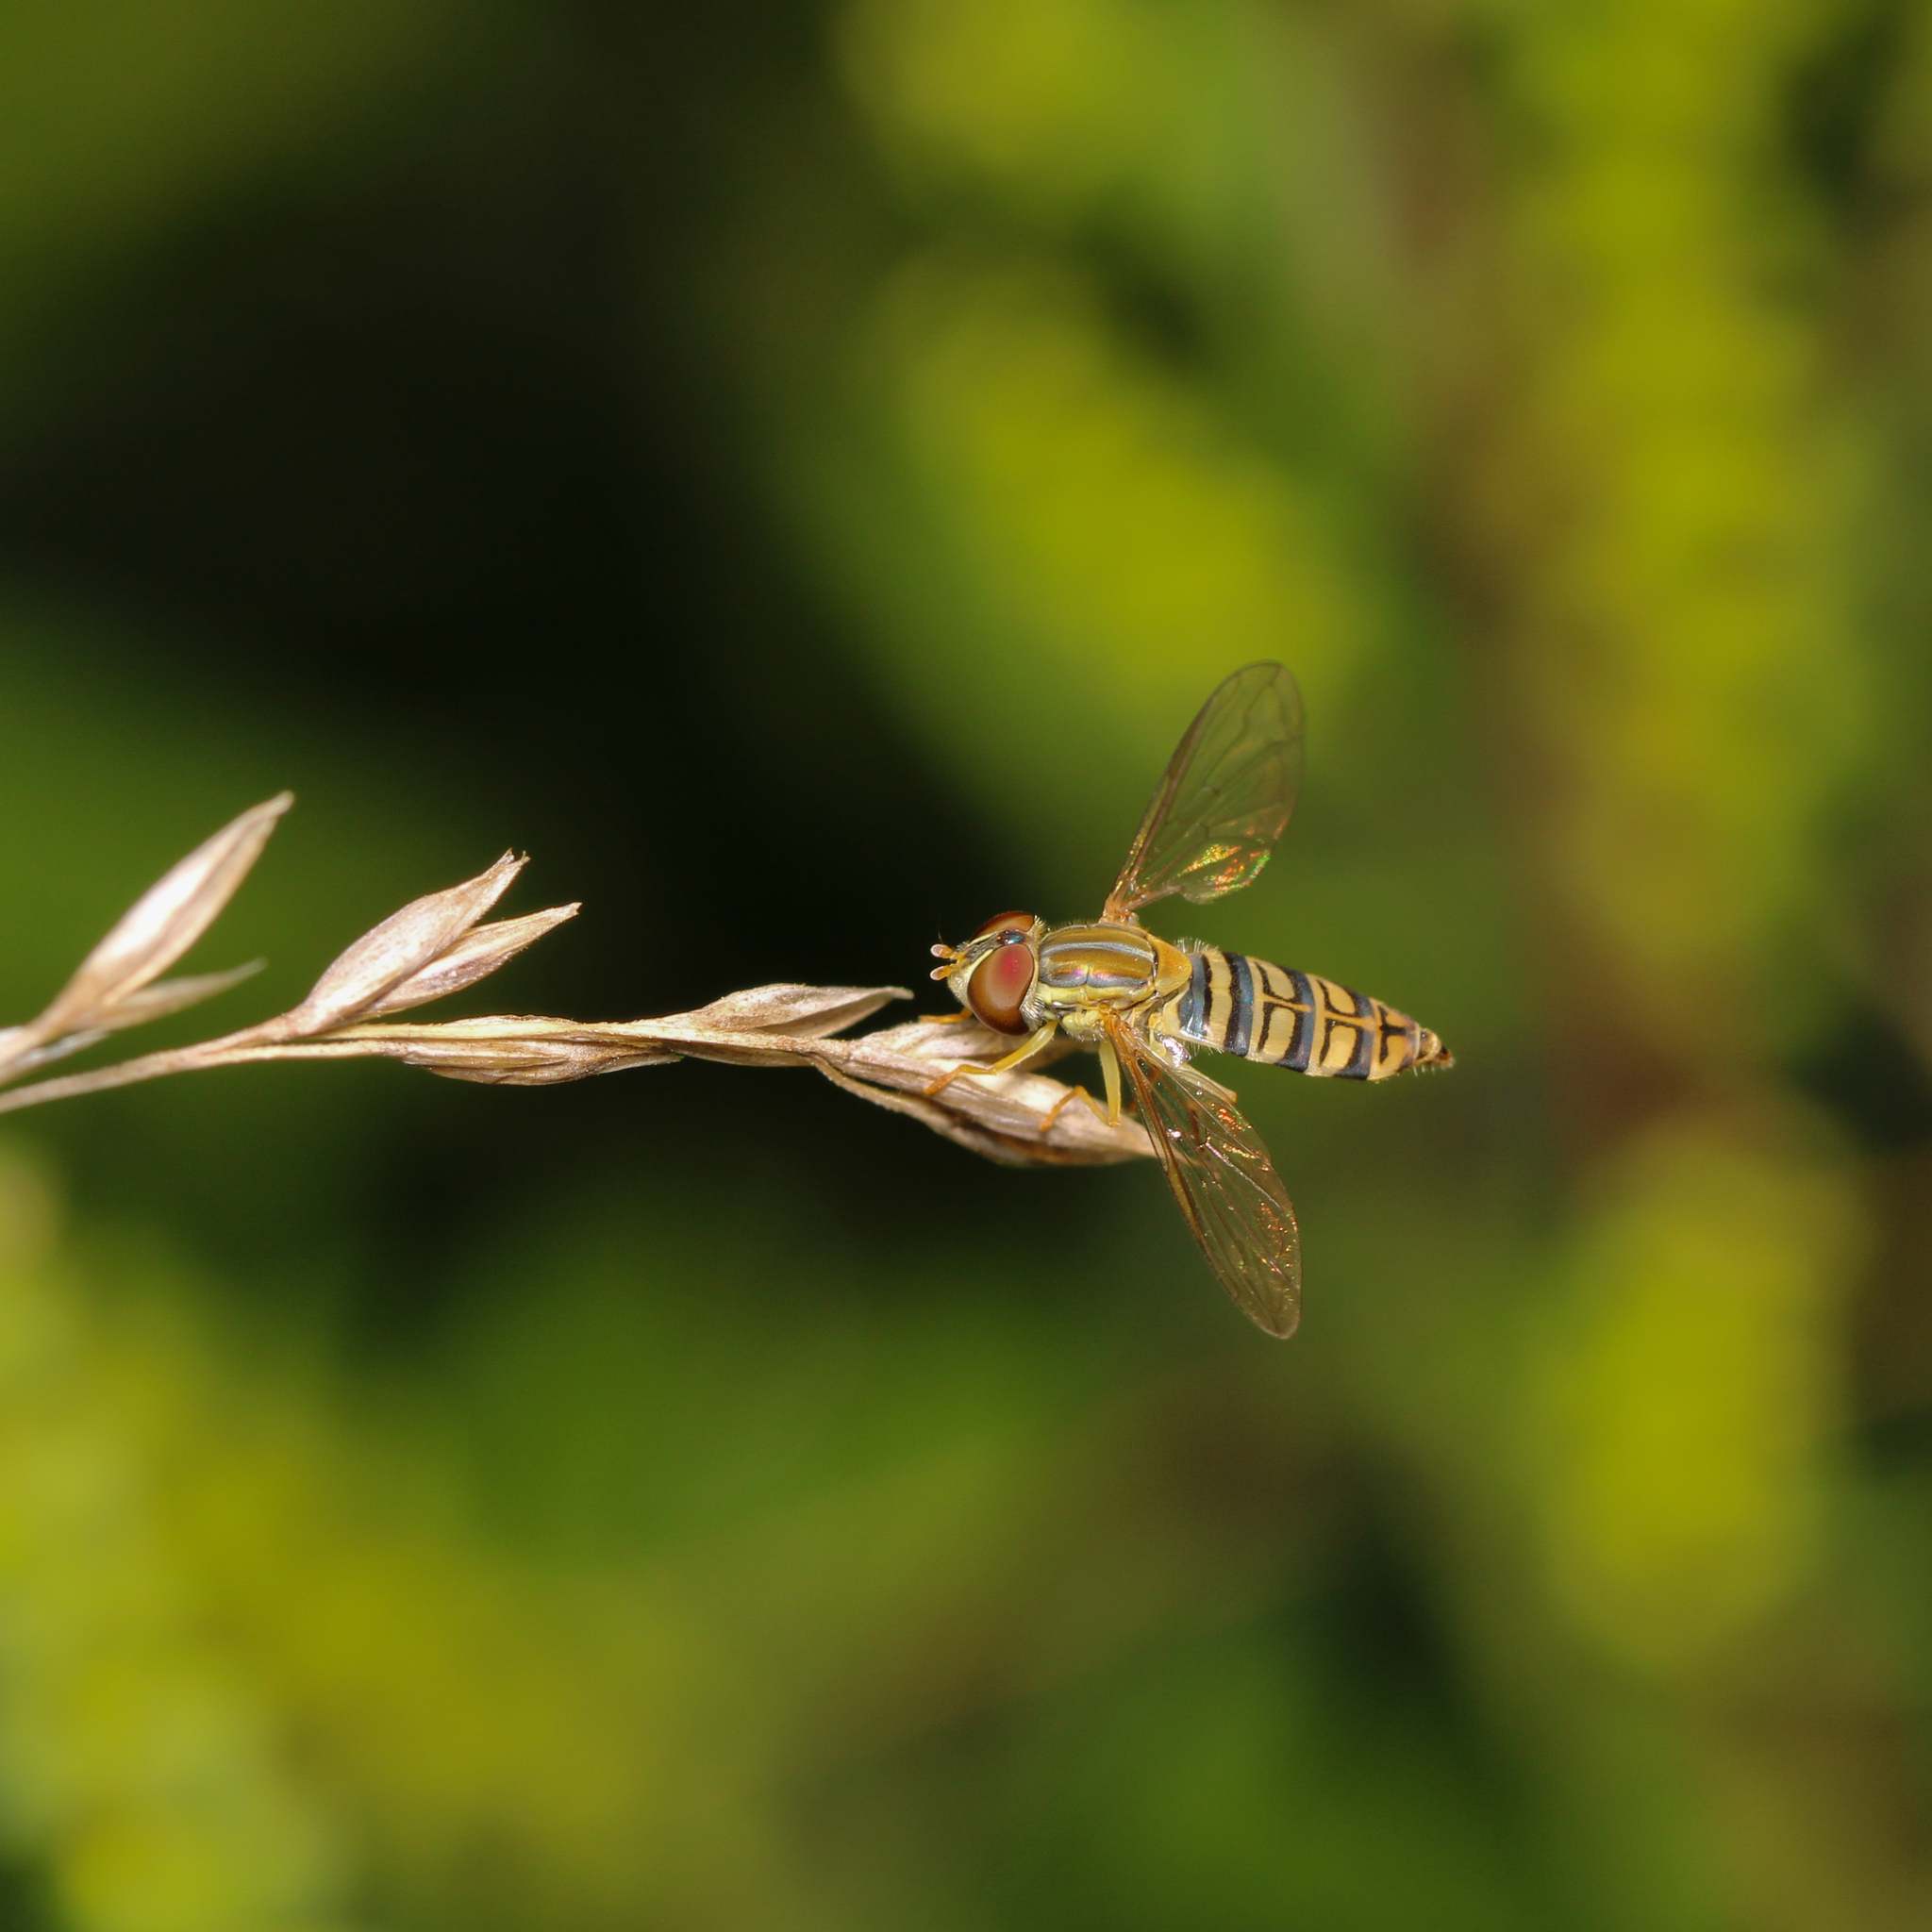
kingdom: Animalia
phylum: Arthropoda
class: Insecta
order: Diptera
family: Syrphidae
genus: Toxomerus
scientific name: Toxomerus politus
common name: Maize calligrapher
